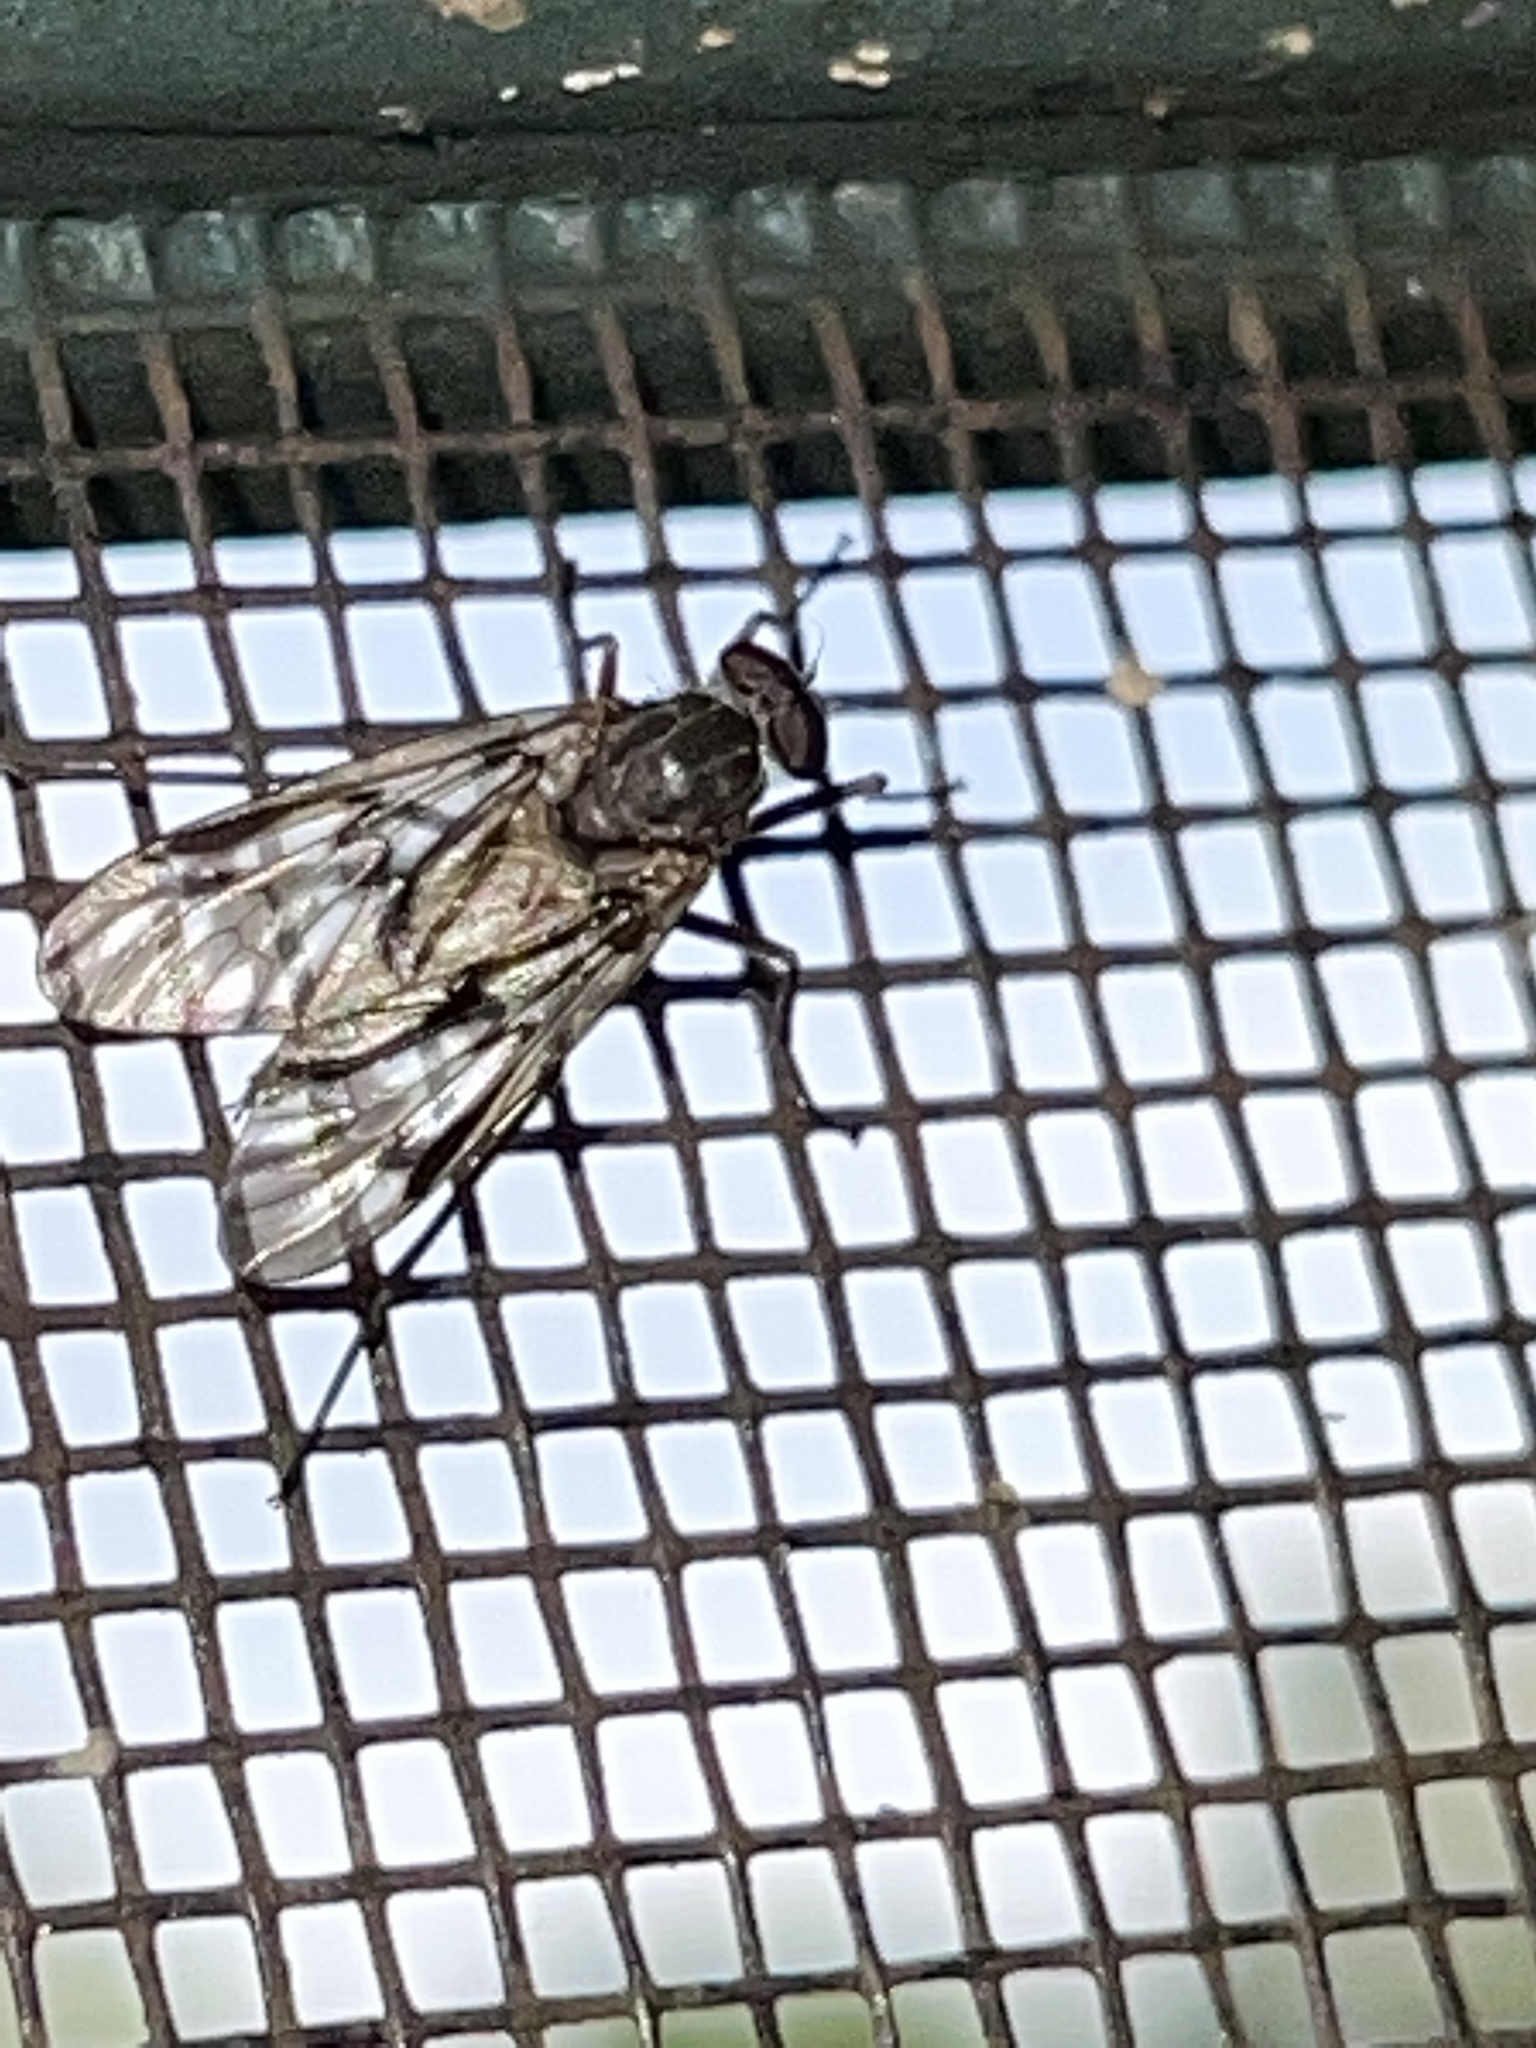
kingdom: Animalia
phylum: Arthropoda
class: Insecta
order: Diptera
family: Rhagionidae
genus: Rhagio
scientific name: Rhagio mystaceus
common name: Common snipe fly
